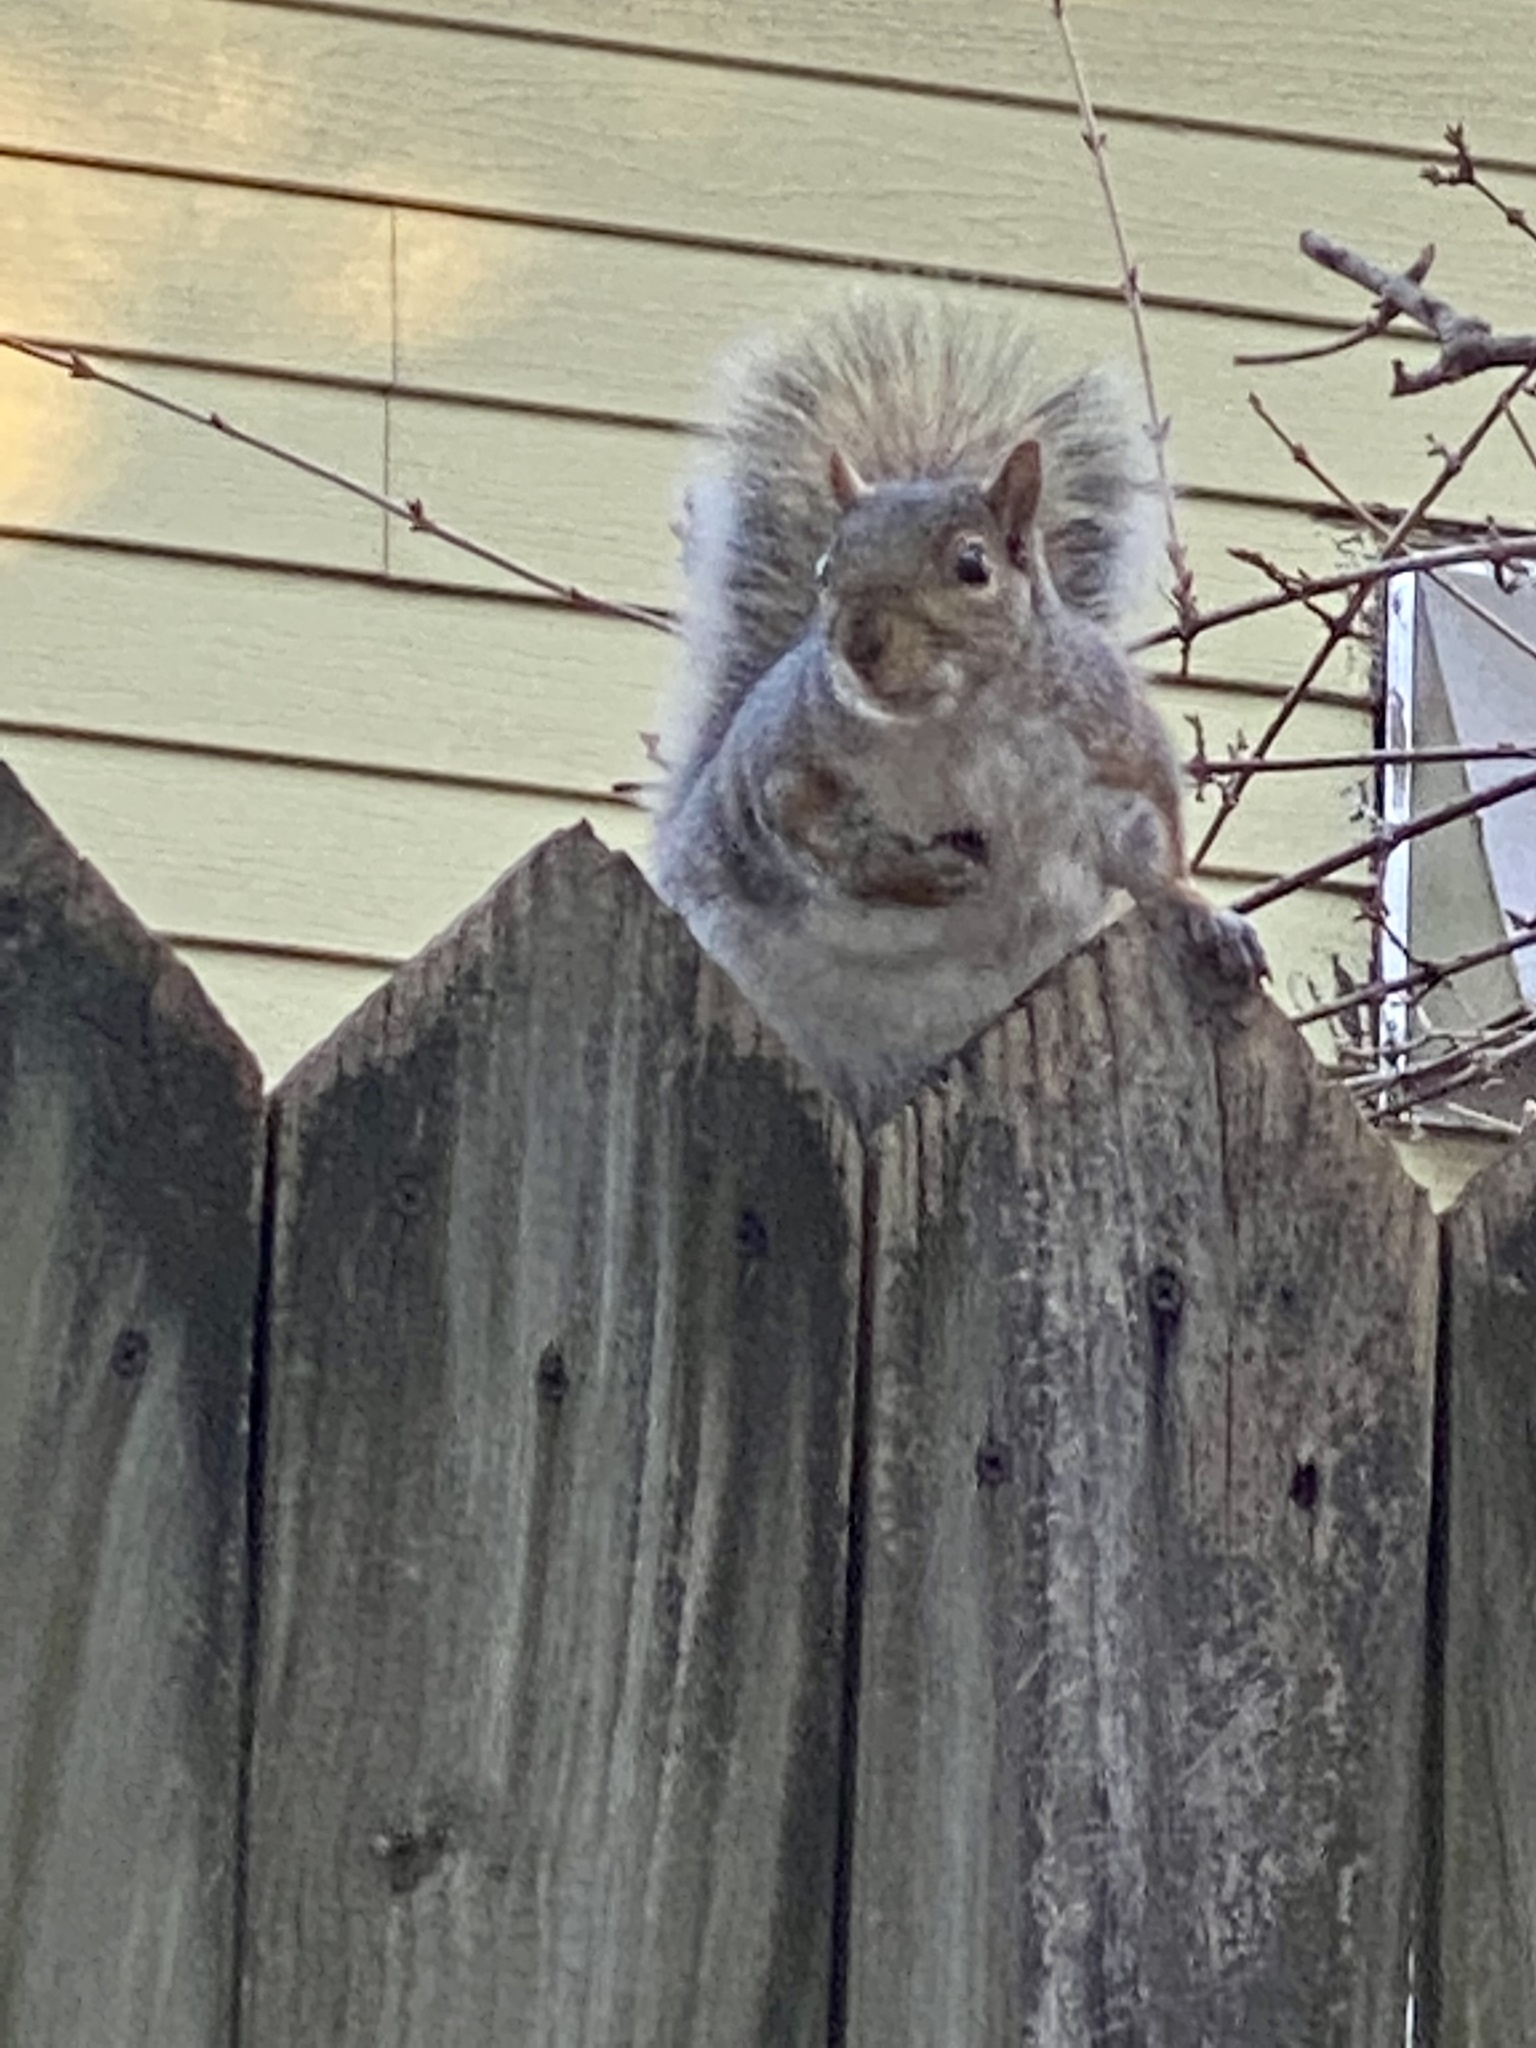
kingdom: Animalia
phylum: Chordata
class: Mammalia
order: Rodentia
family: Sciuridae
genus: Sciurus
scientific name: Sciurus carolinensis
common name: Eastern gray squirrel
